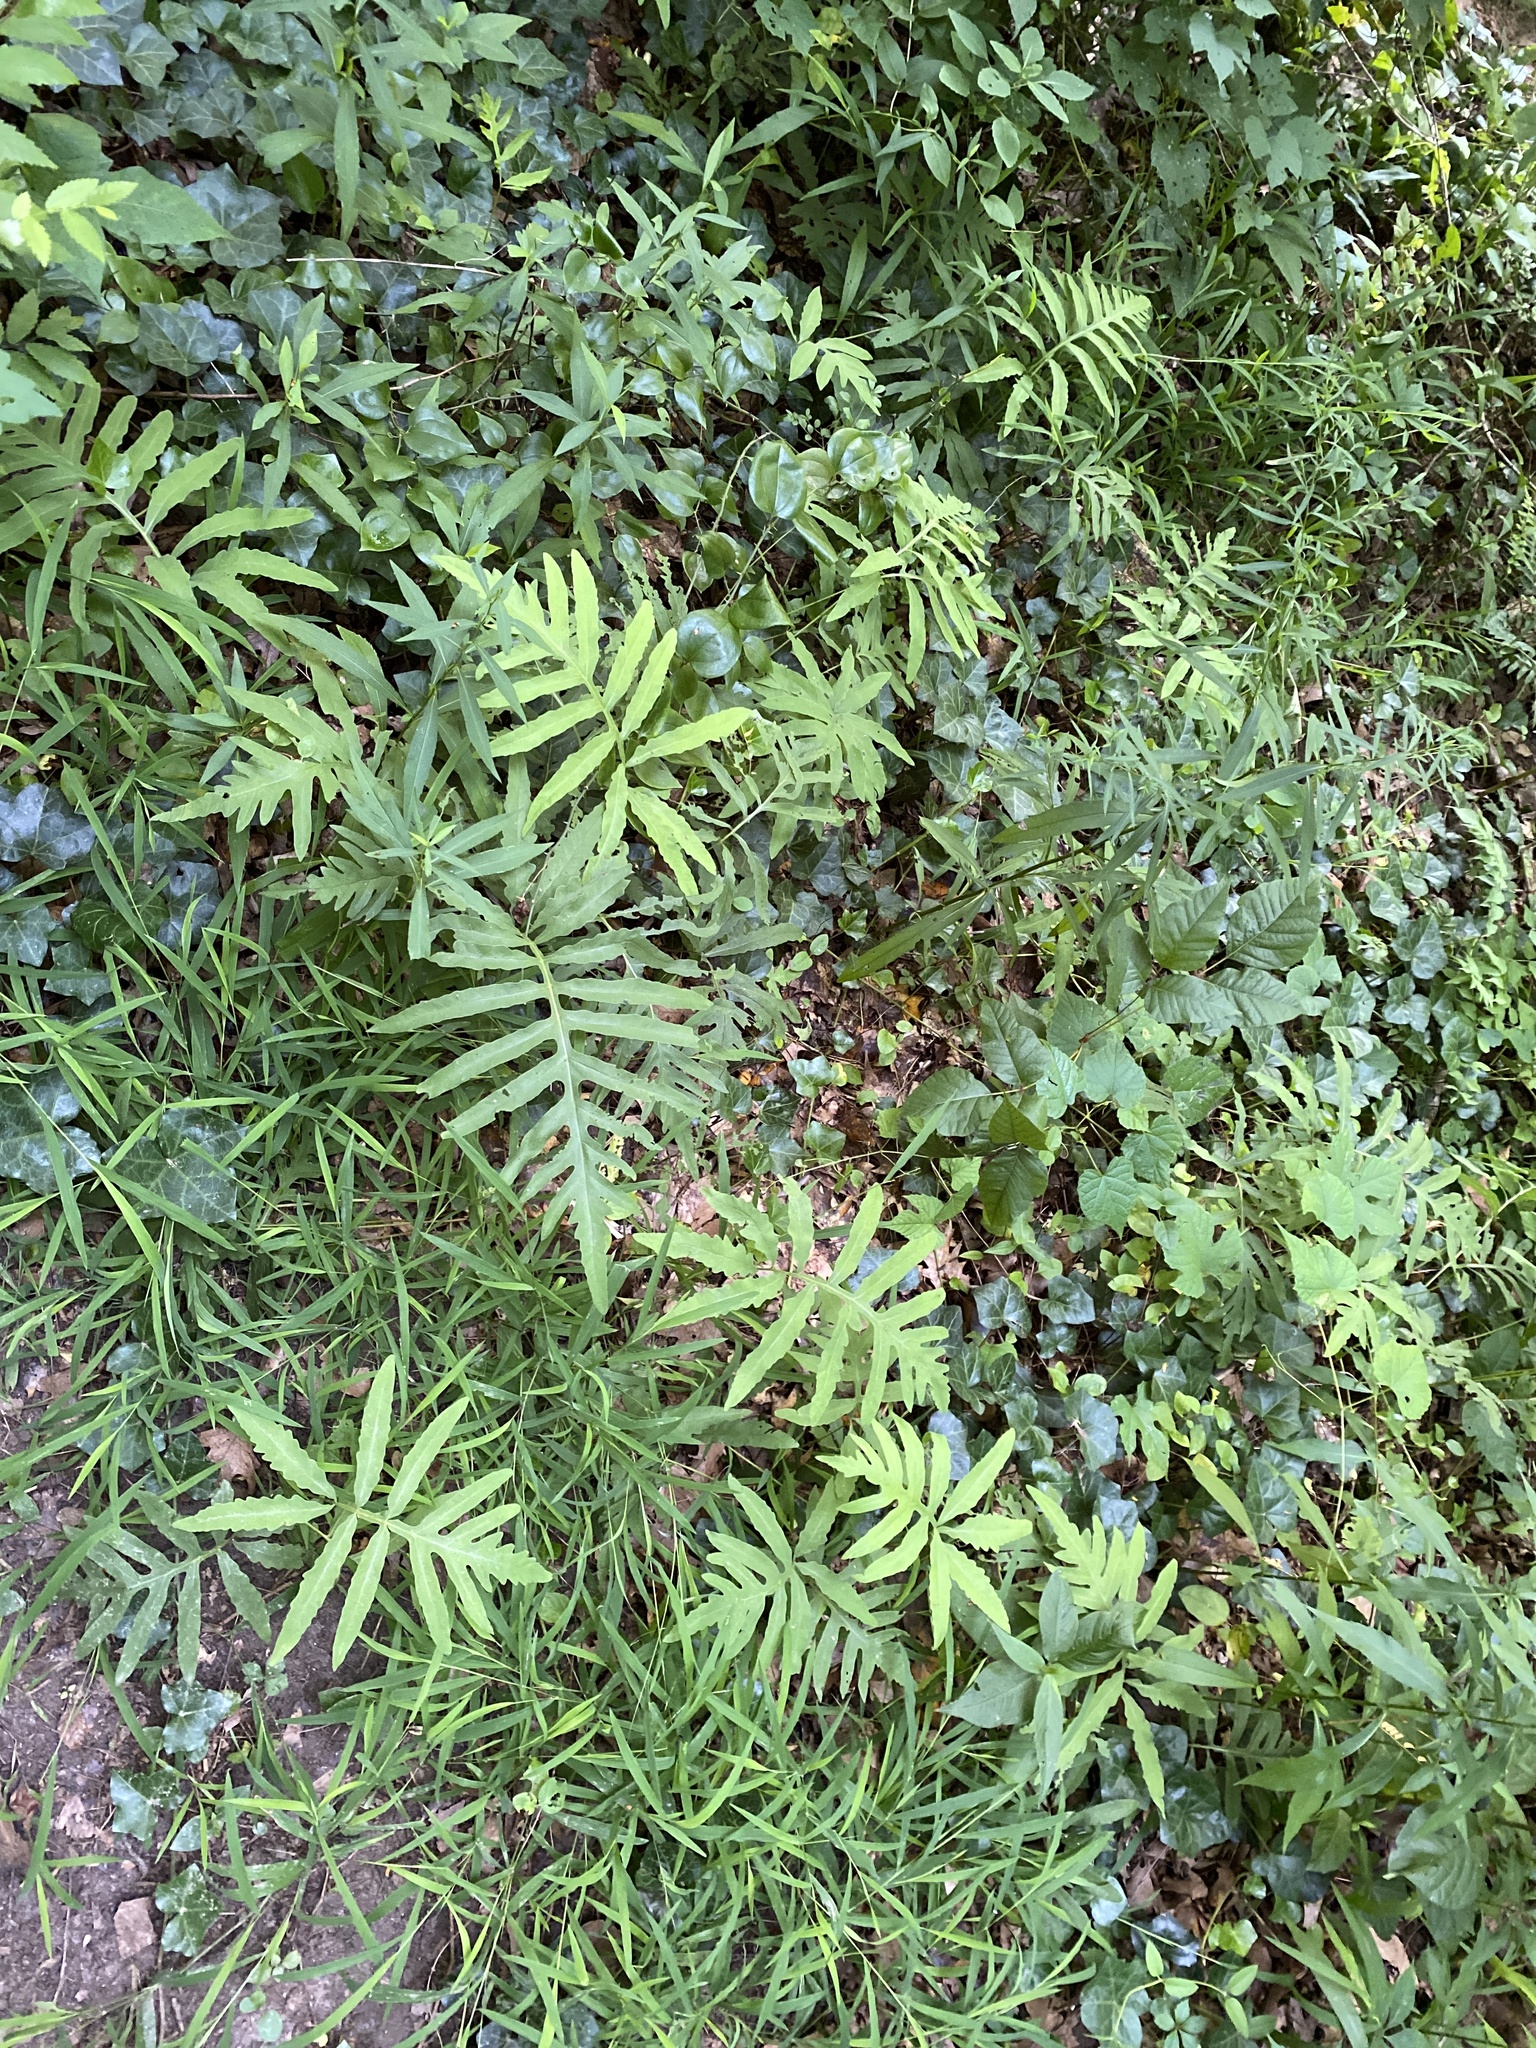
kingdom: Plantae
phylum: Tracheophyta
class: Polypodiopsida
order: Polypodiales
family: Onocleaceae
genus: Onoclea
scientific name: Onoclea sensibilis
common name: Sensitive fern
